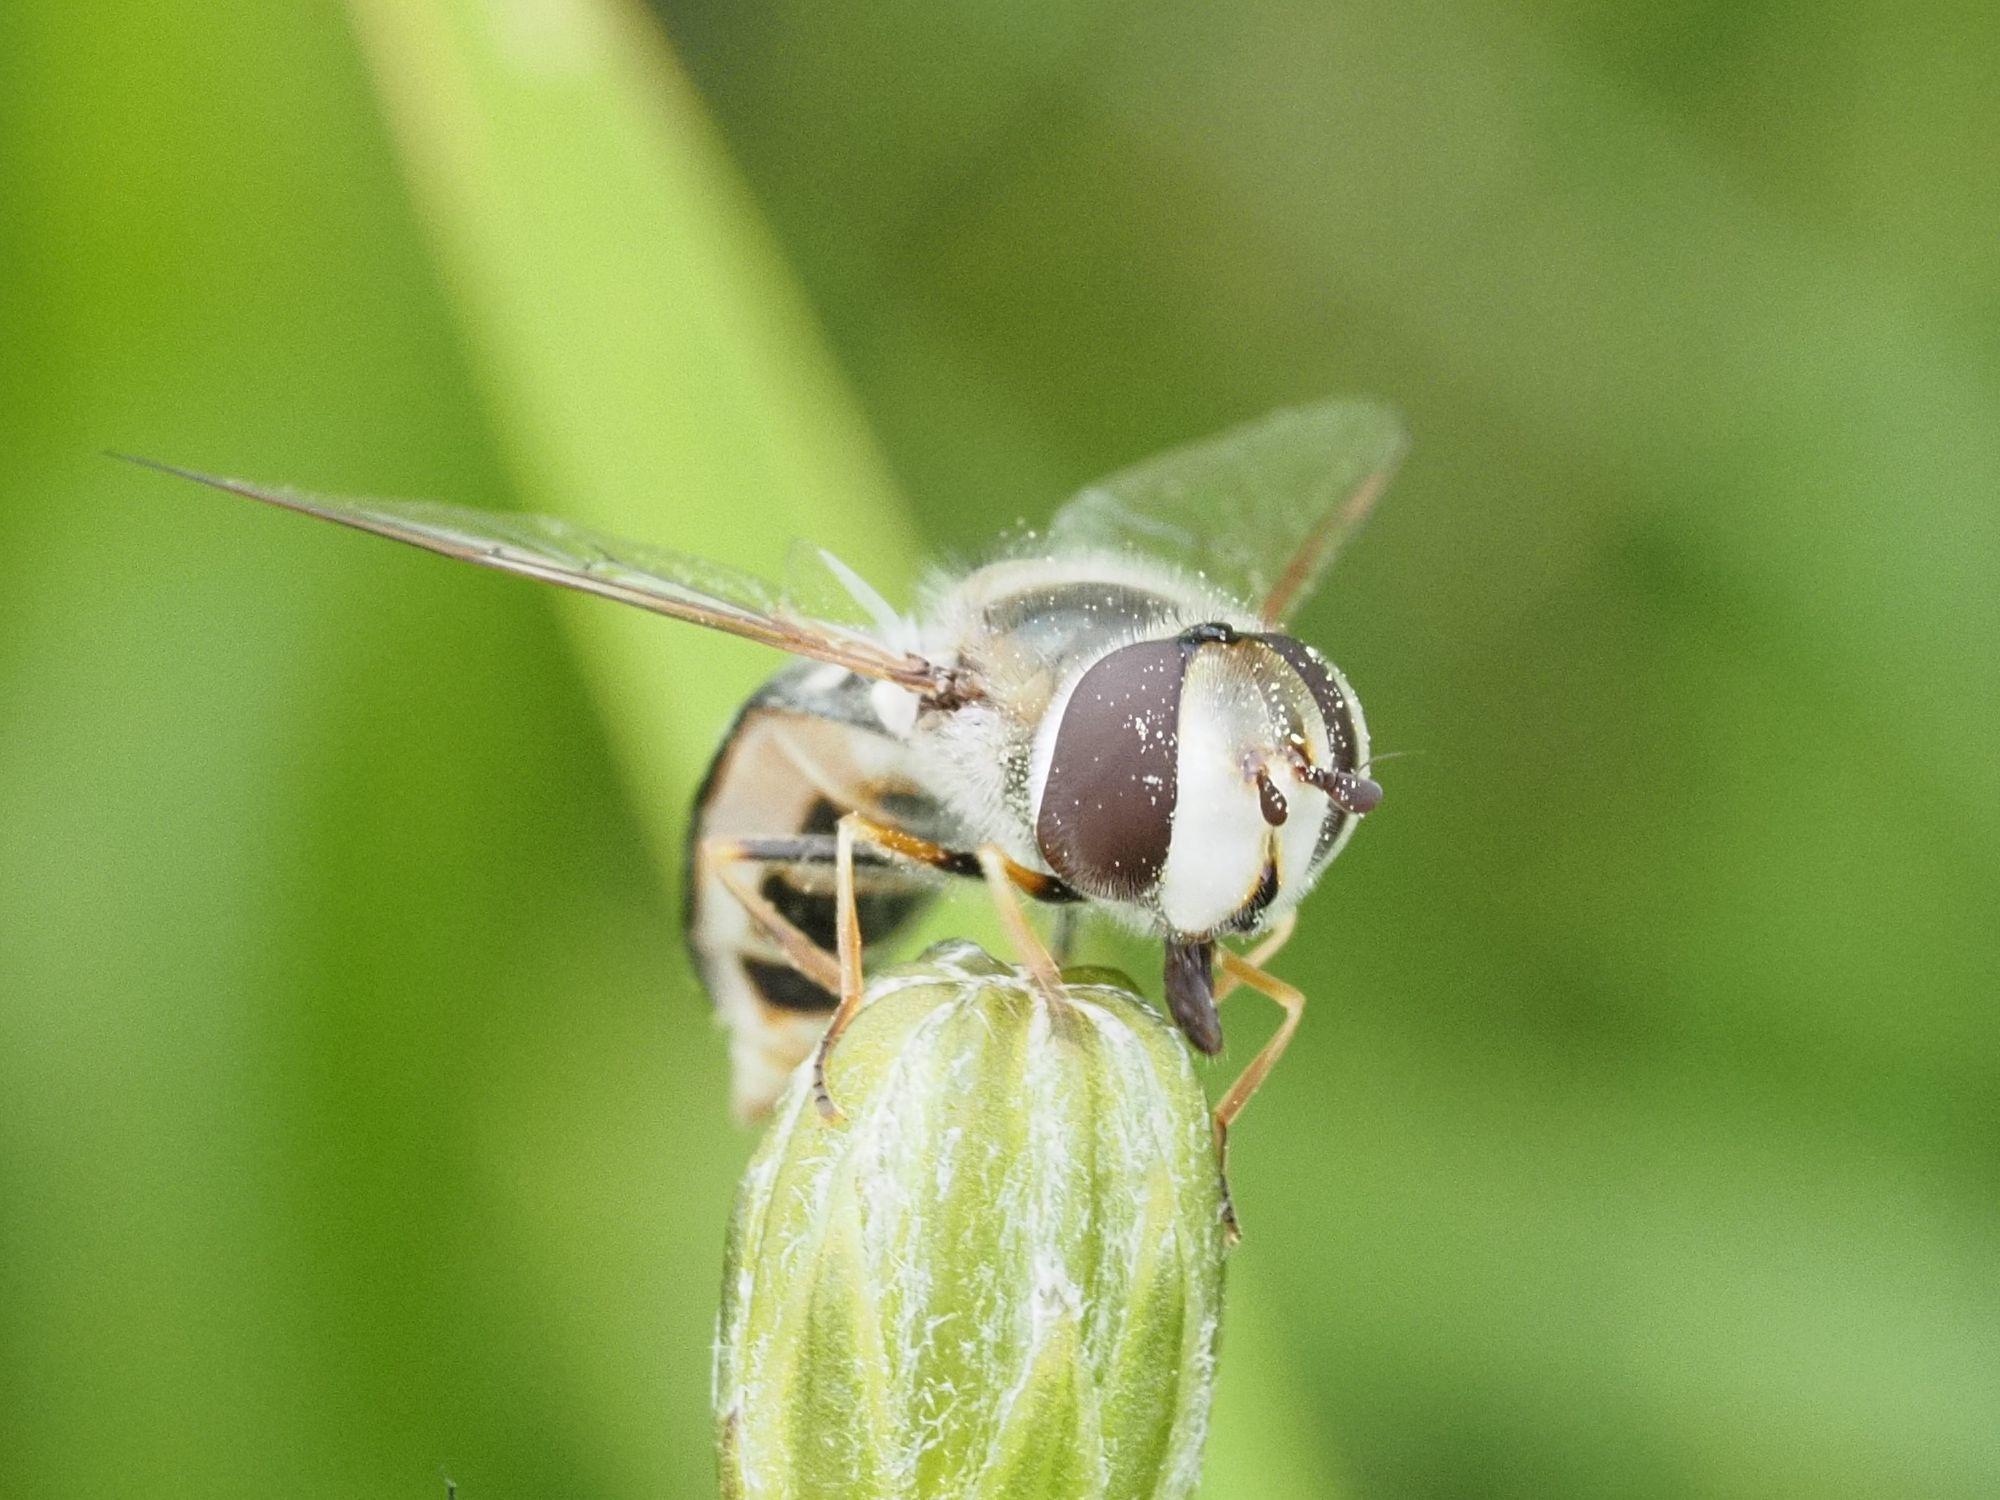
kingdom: Animalia
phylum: Arthropoda
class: Insecta
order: Diptera
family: Syrphidae
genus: Scaeva
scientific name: Scaeva pyrastri
